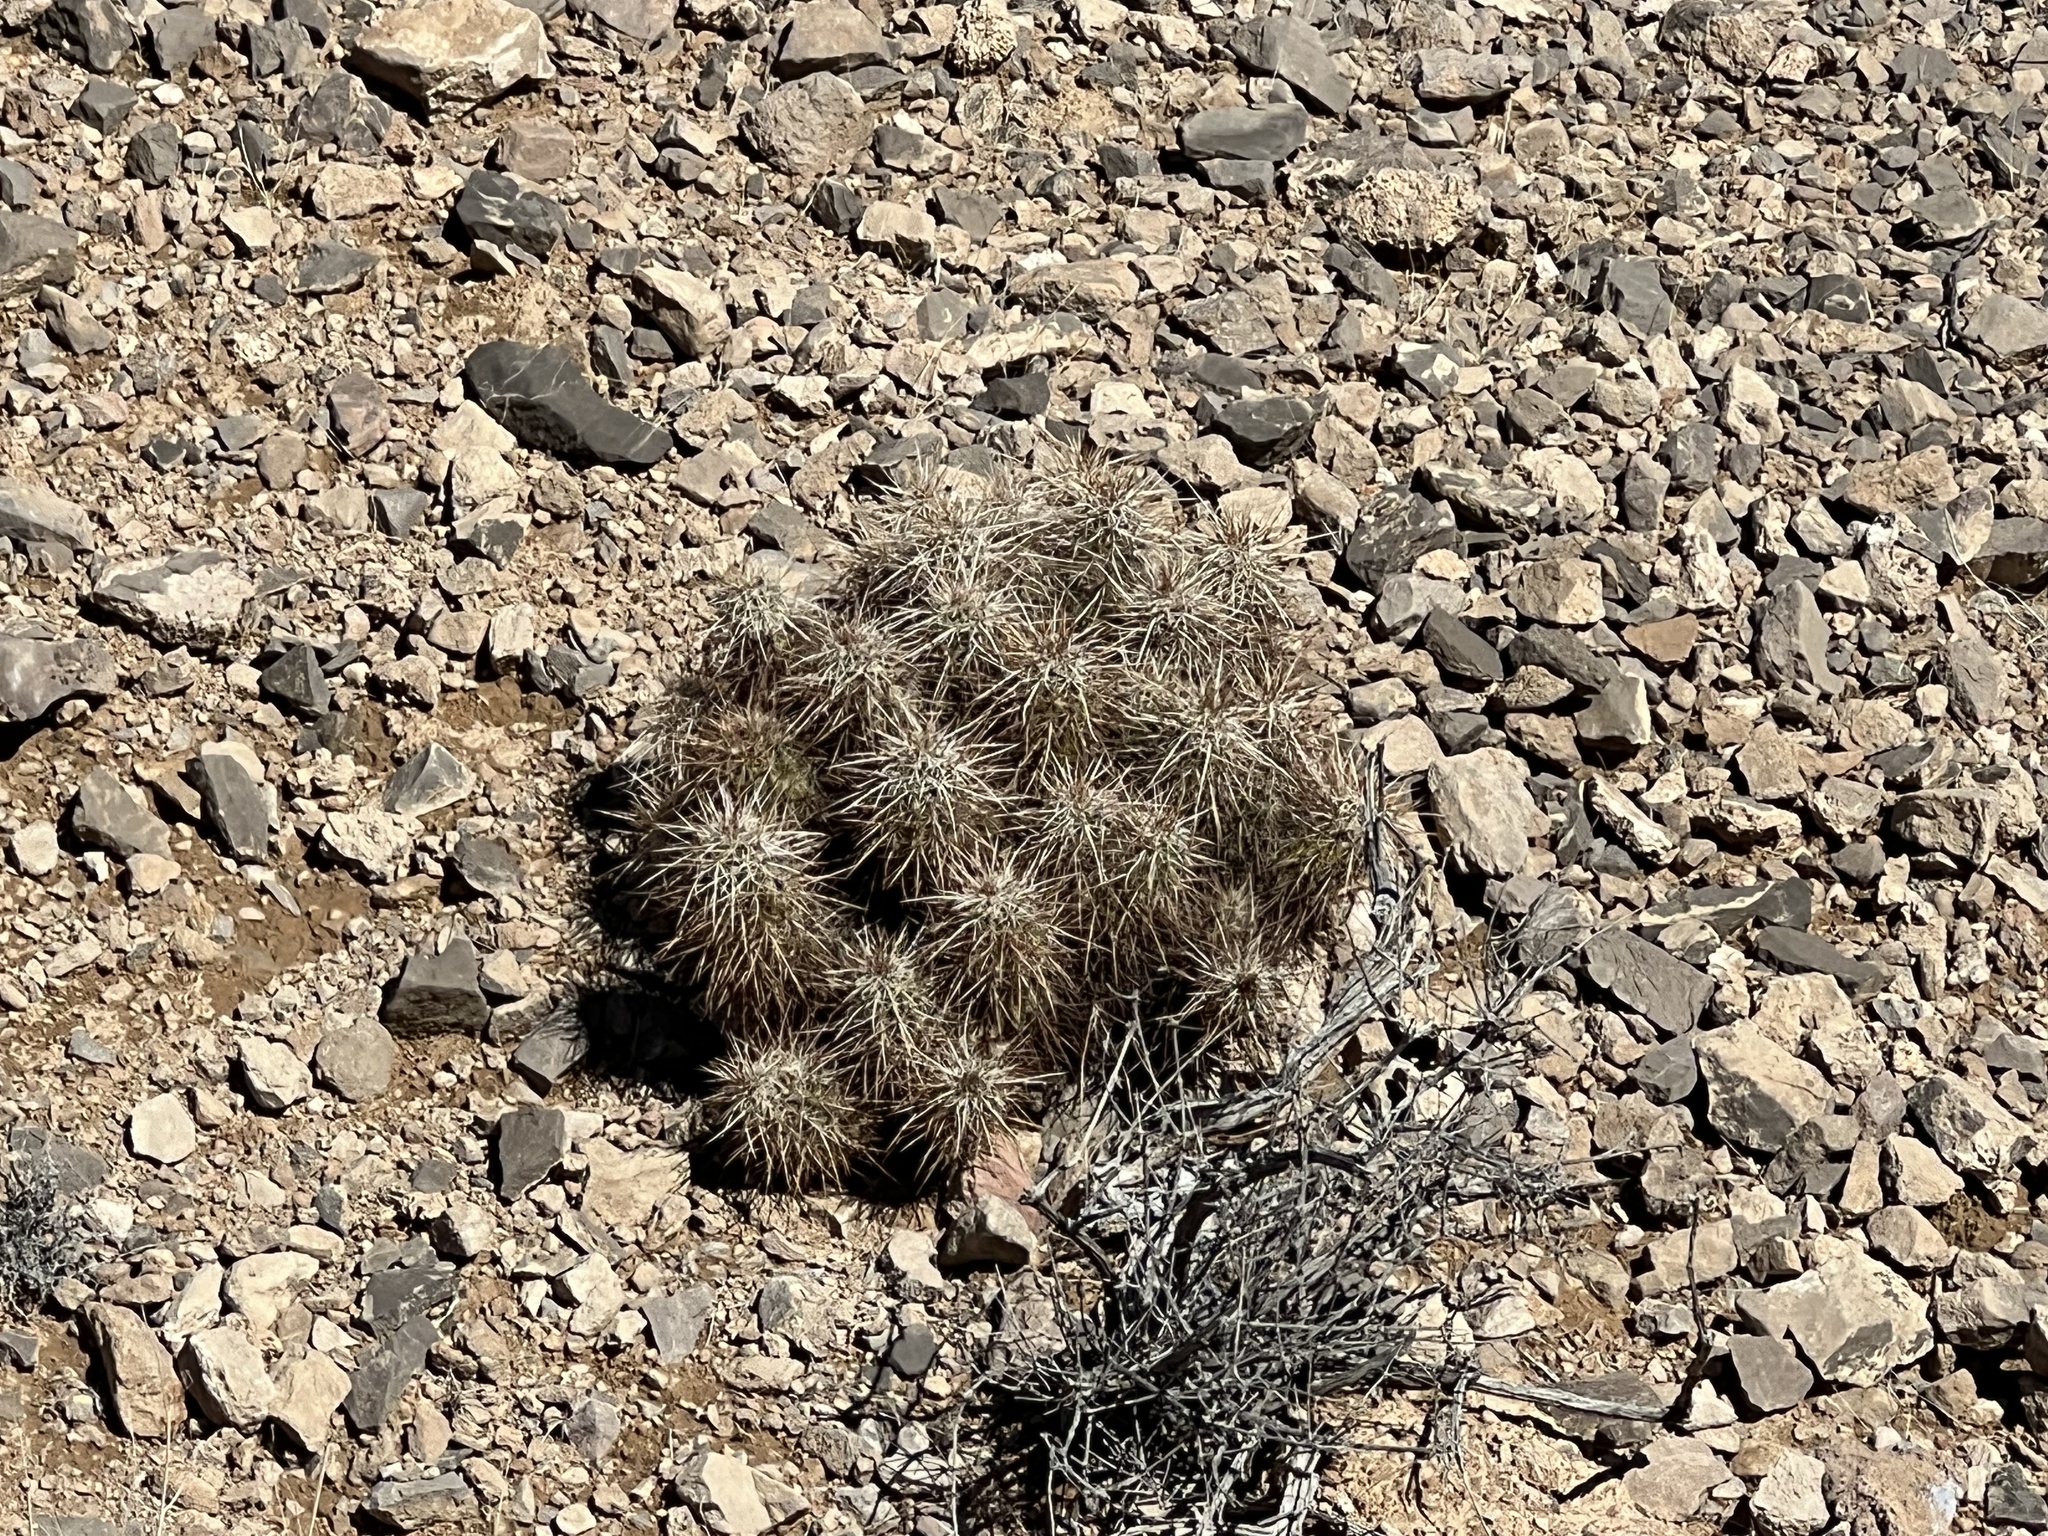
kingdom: Plantae
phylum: Tracheophyta
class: Magnoliopsida
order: Caryophyllales
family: Cactaceae
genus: Echinocereus
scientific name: Echinocereus engelmannii
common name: Engelmann's hedgehog cactus
